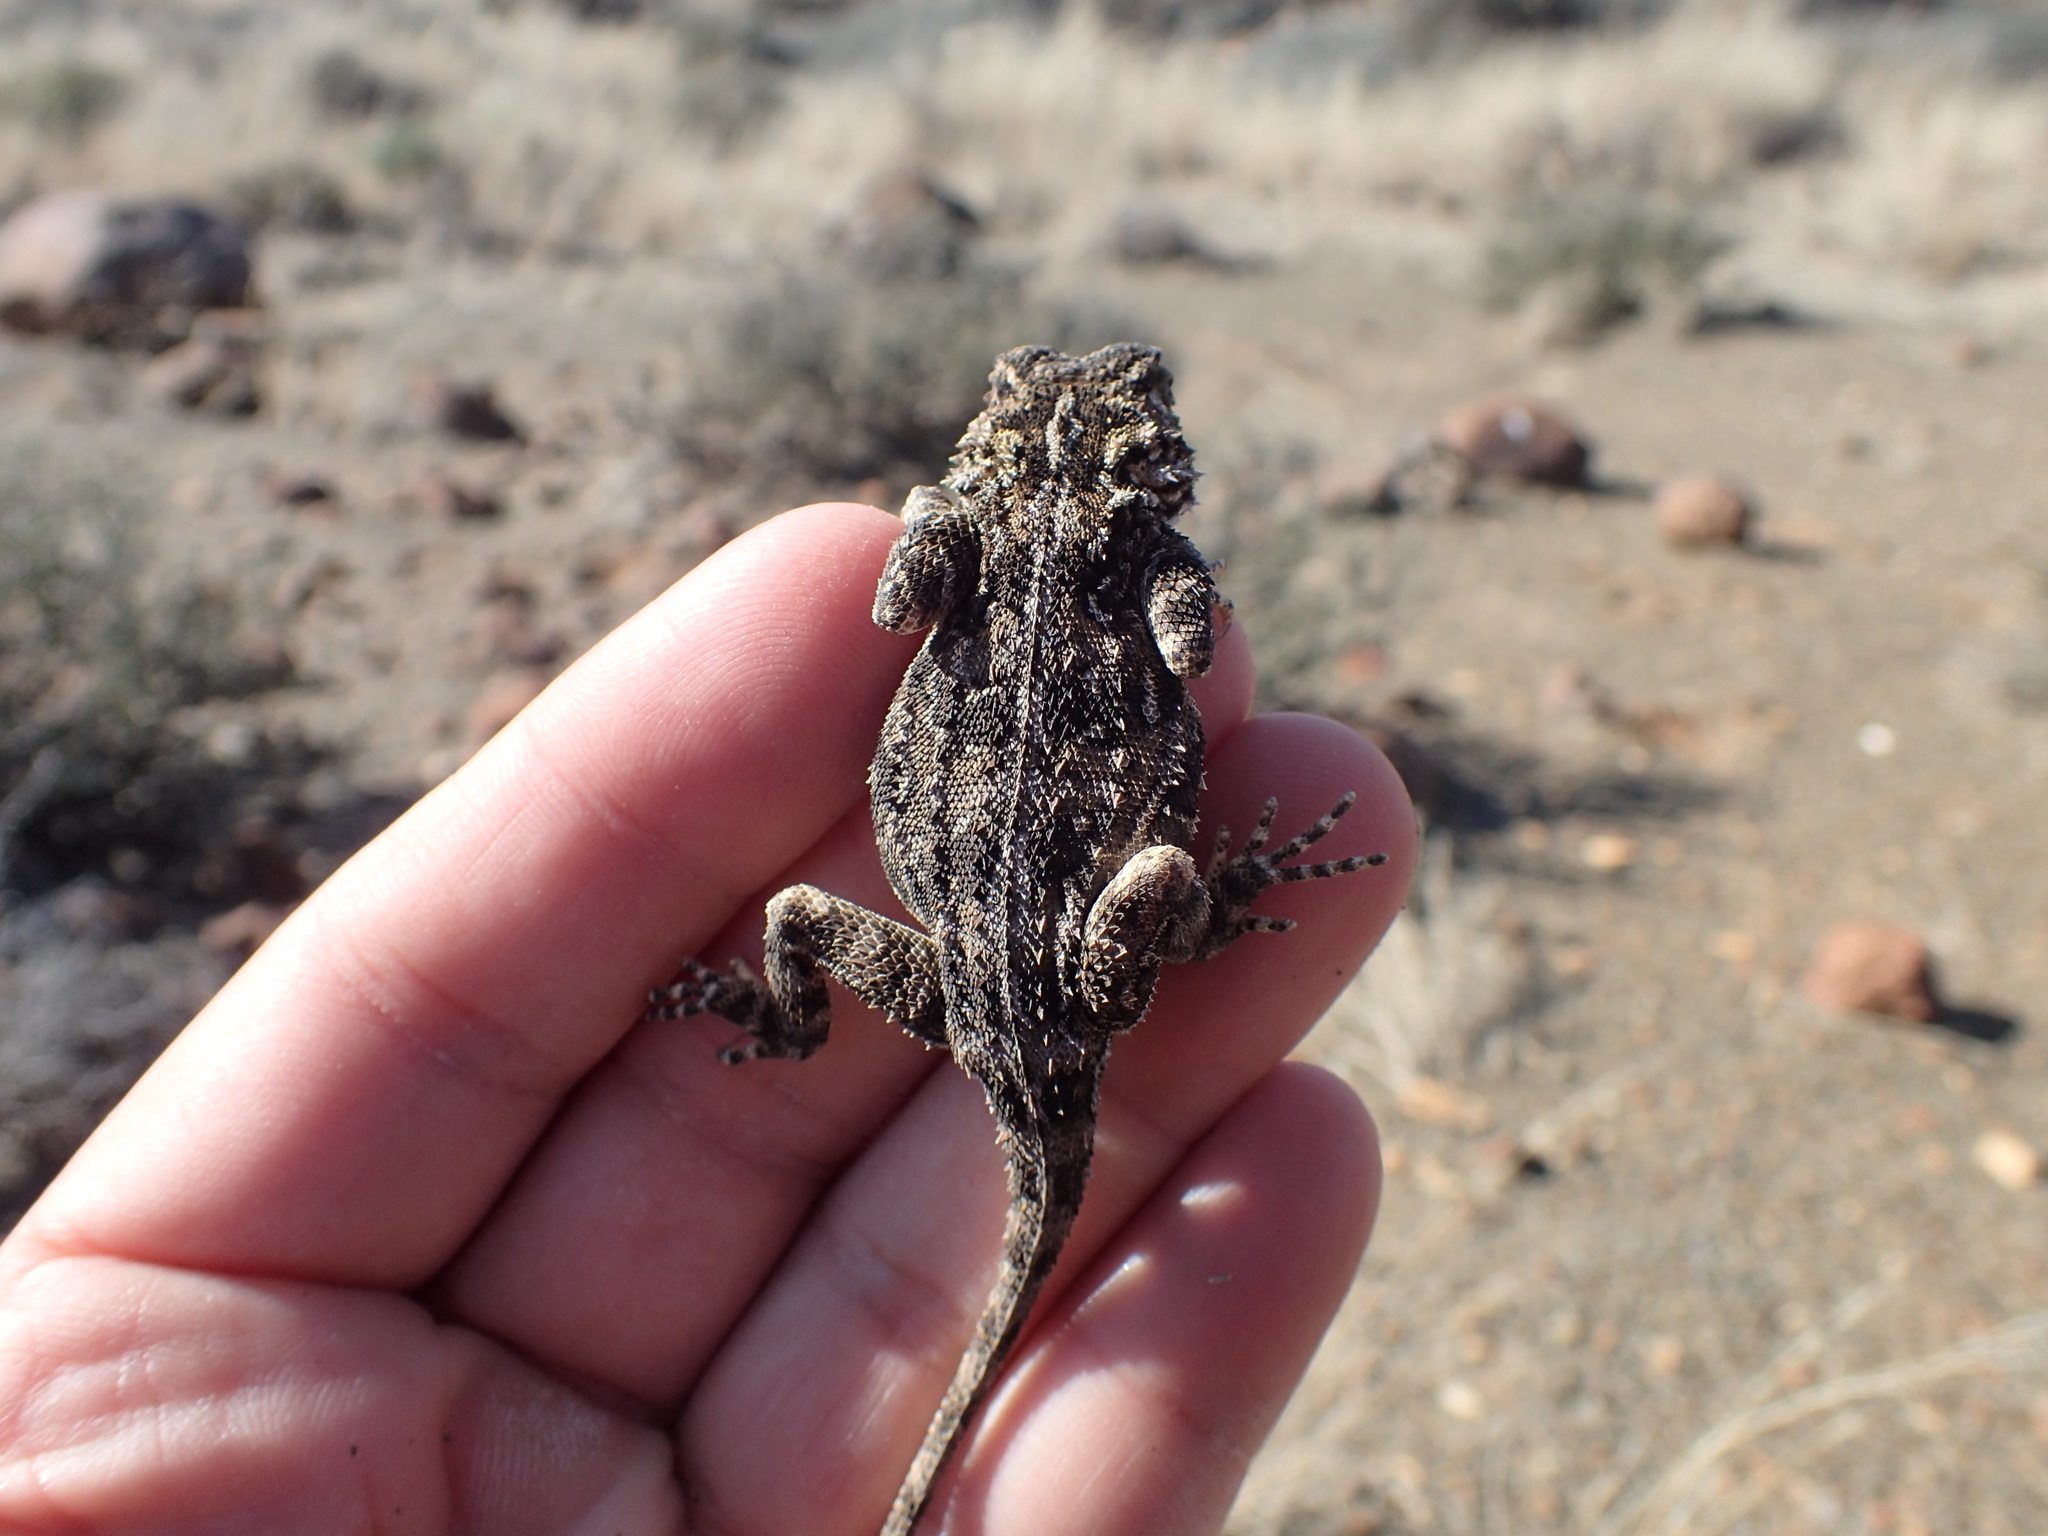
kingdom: Animalia
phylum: Chordata
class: Squamata
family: Agamidae
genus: Agama
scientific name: Agama aculeata
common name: Common ground agama
